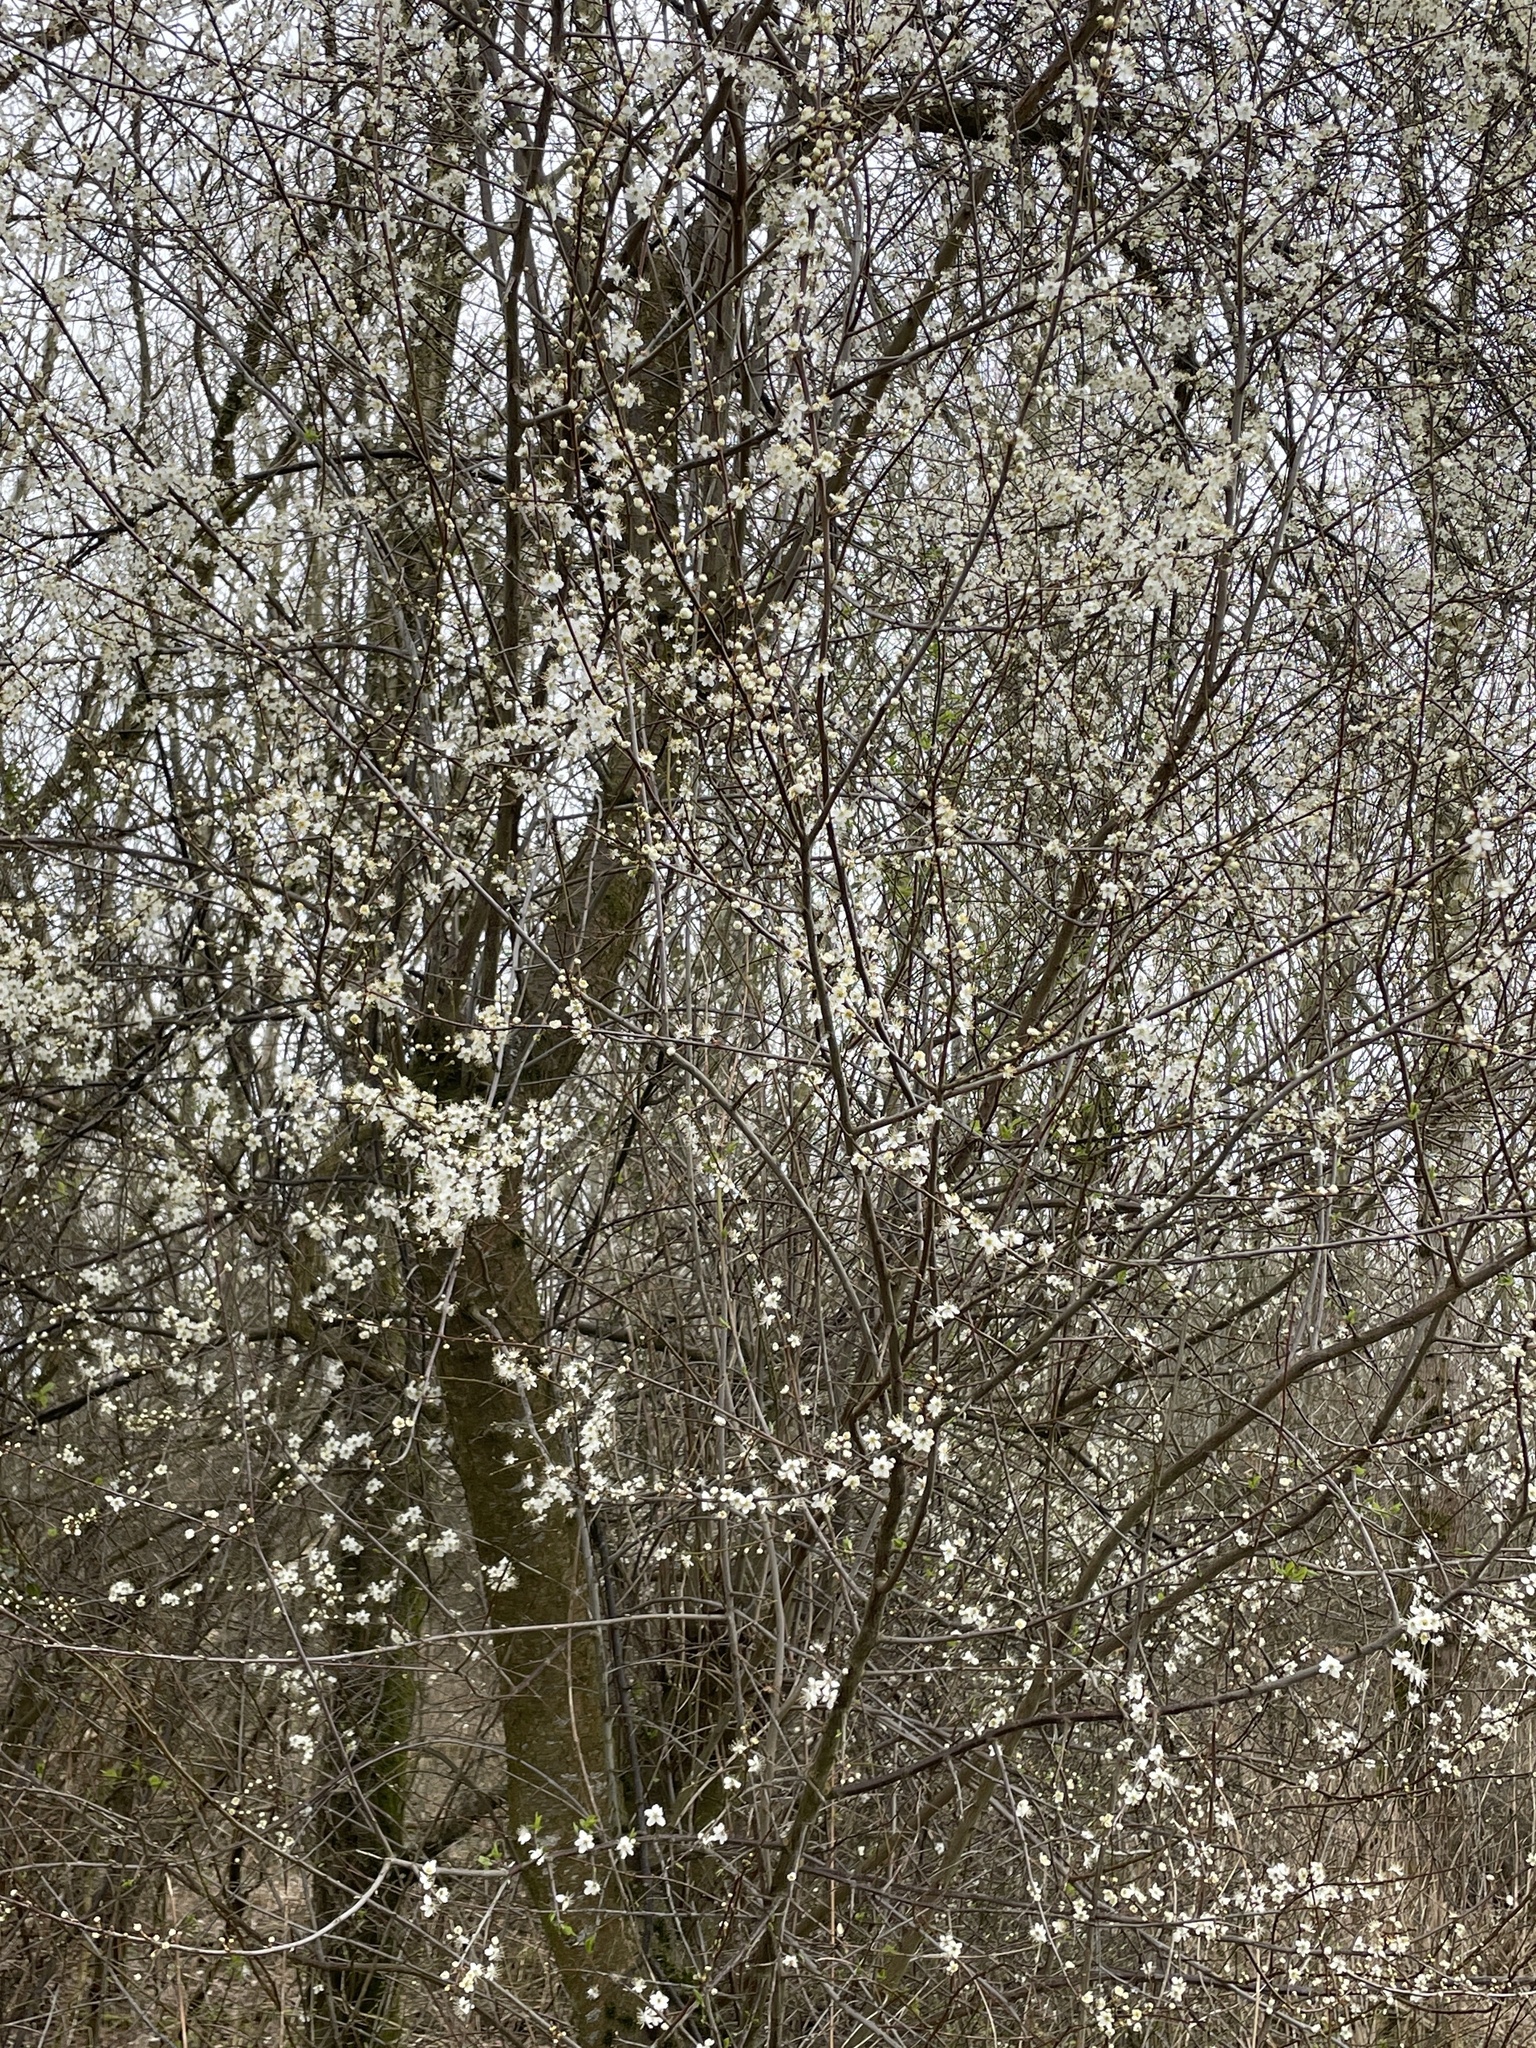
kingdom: Plantae
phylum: Tracheophyta
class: Magnoliopsida
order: Rosales
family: Rosaceae
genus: Prunus
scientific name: Prunus cerasifera
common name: Cherry plum
